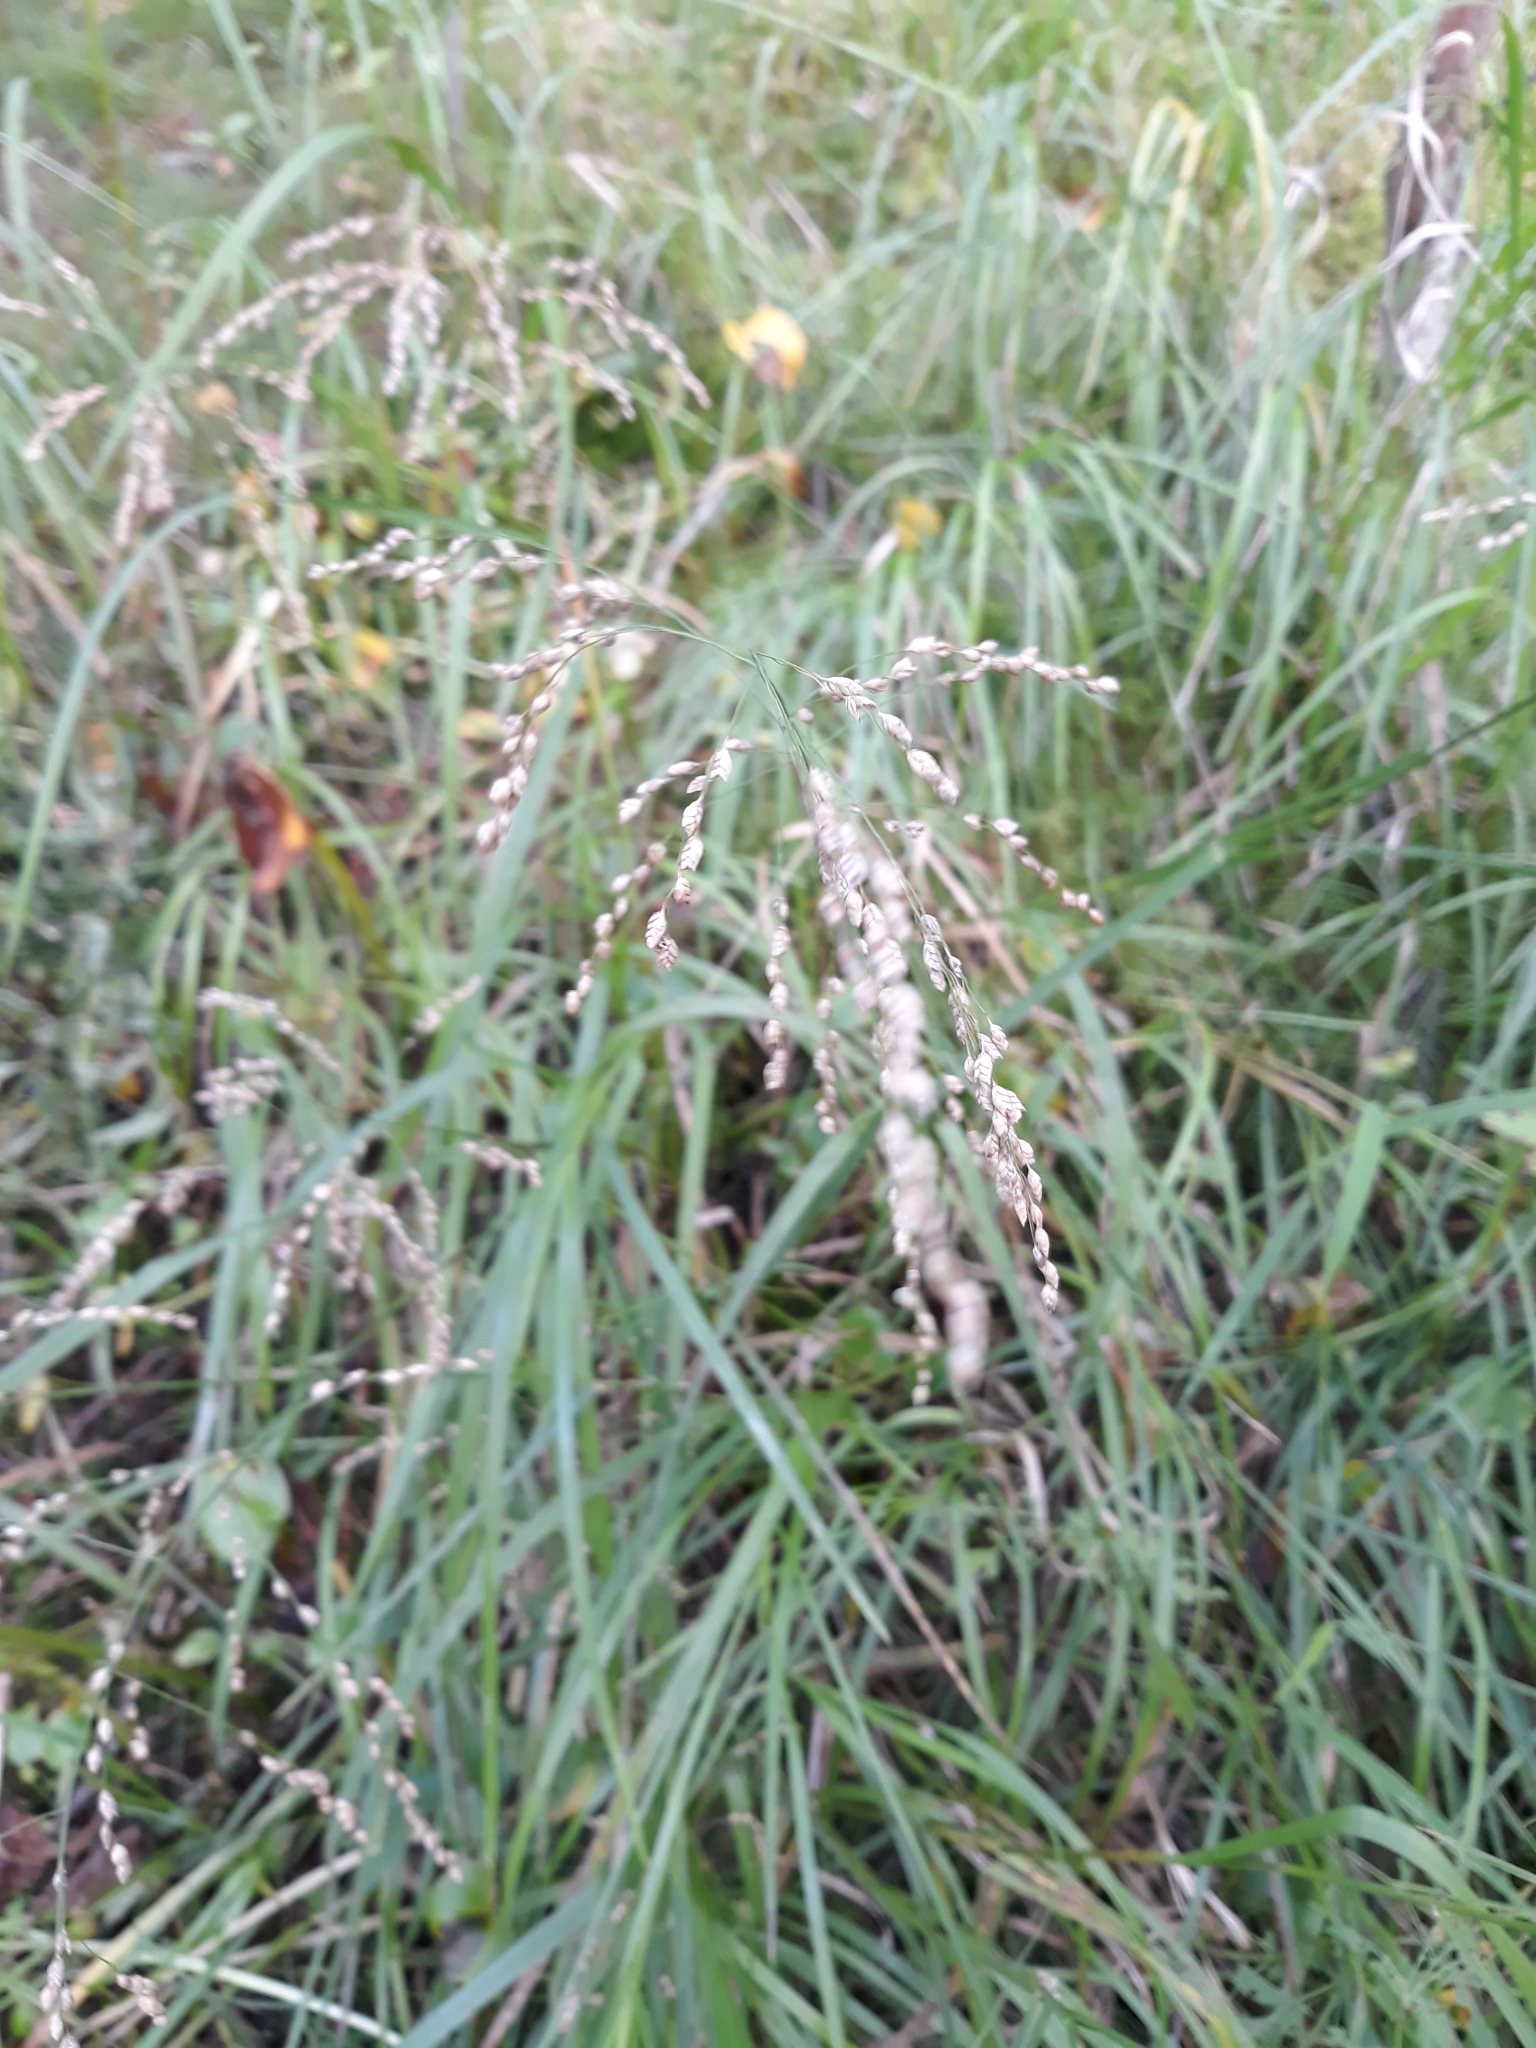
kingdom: Plantae
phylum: Tracheophyta
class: Liliopsida
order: Poales
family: Poaceae
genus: Glyceria
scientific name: Glyceria striata
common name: Fowl manna grass
